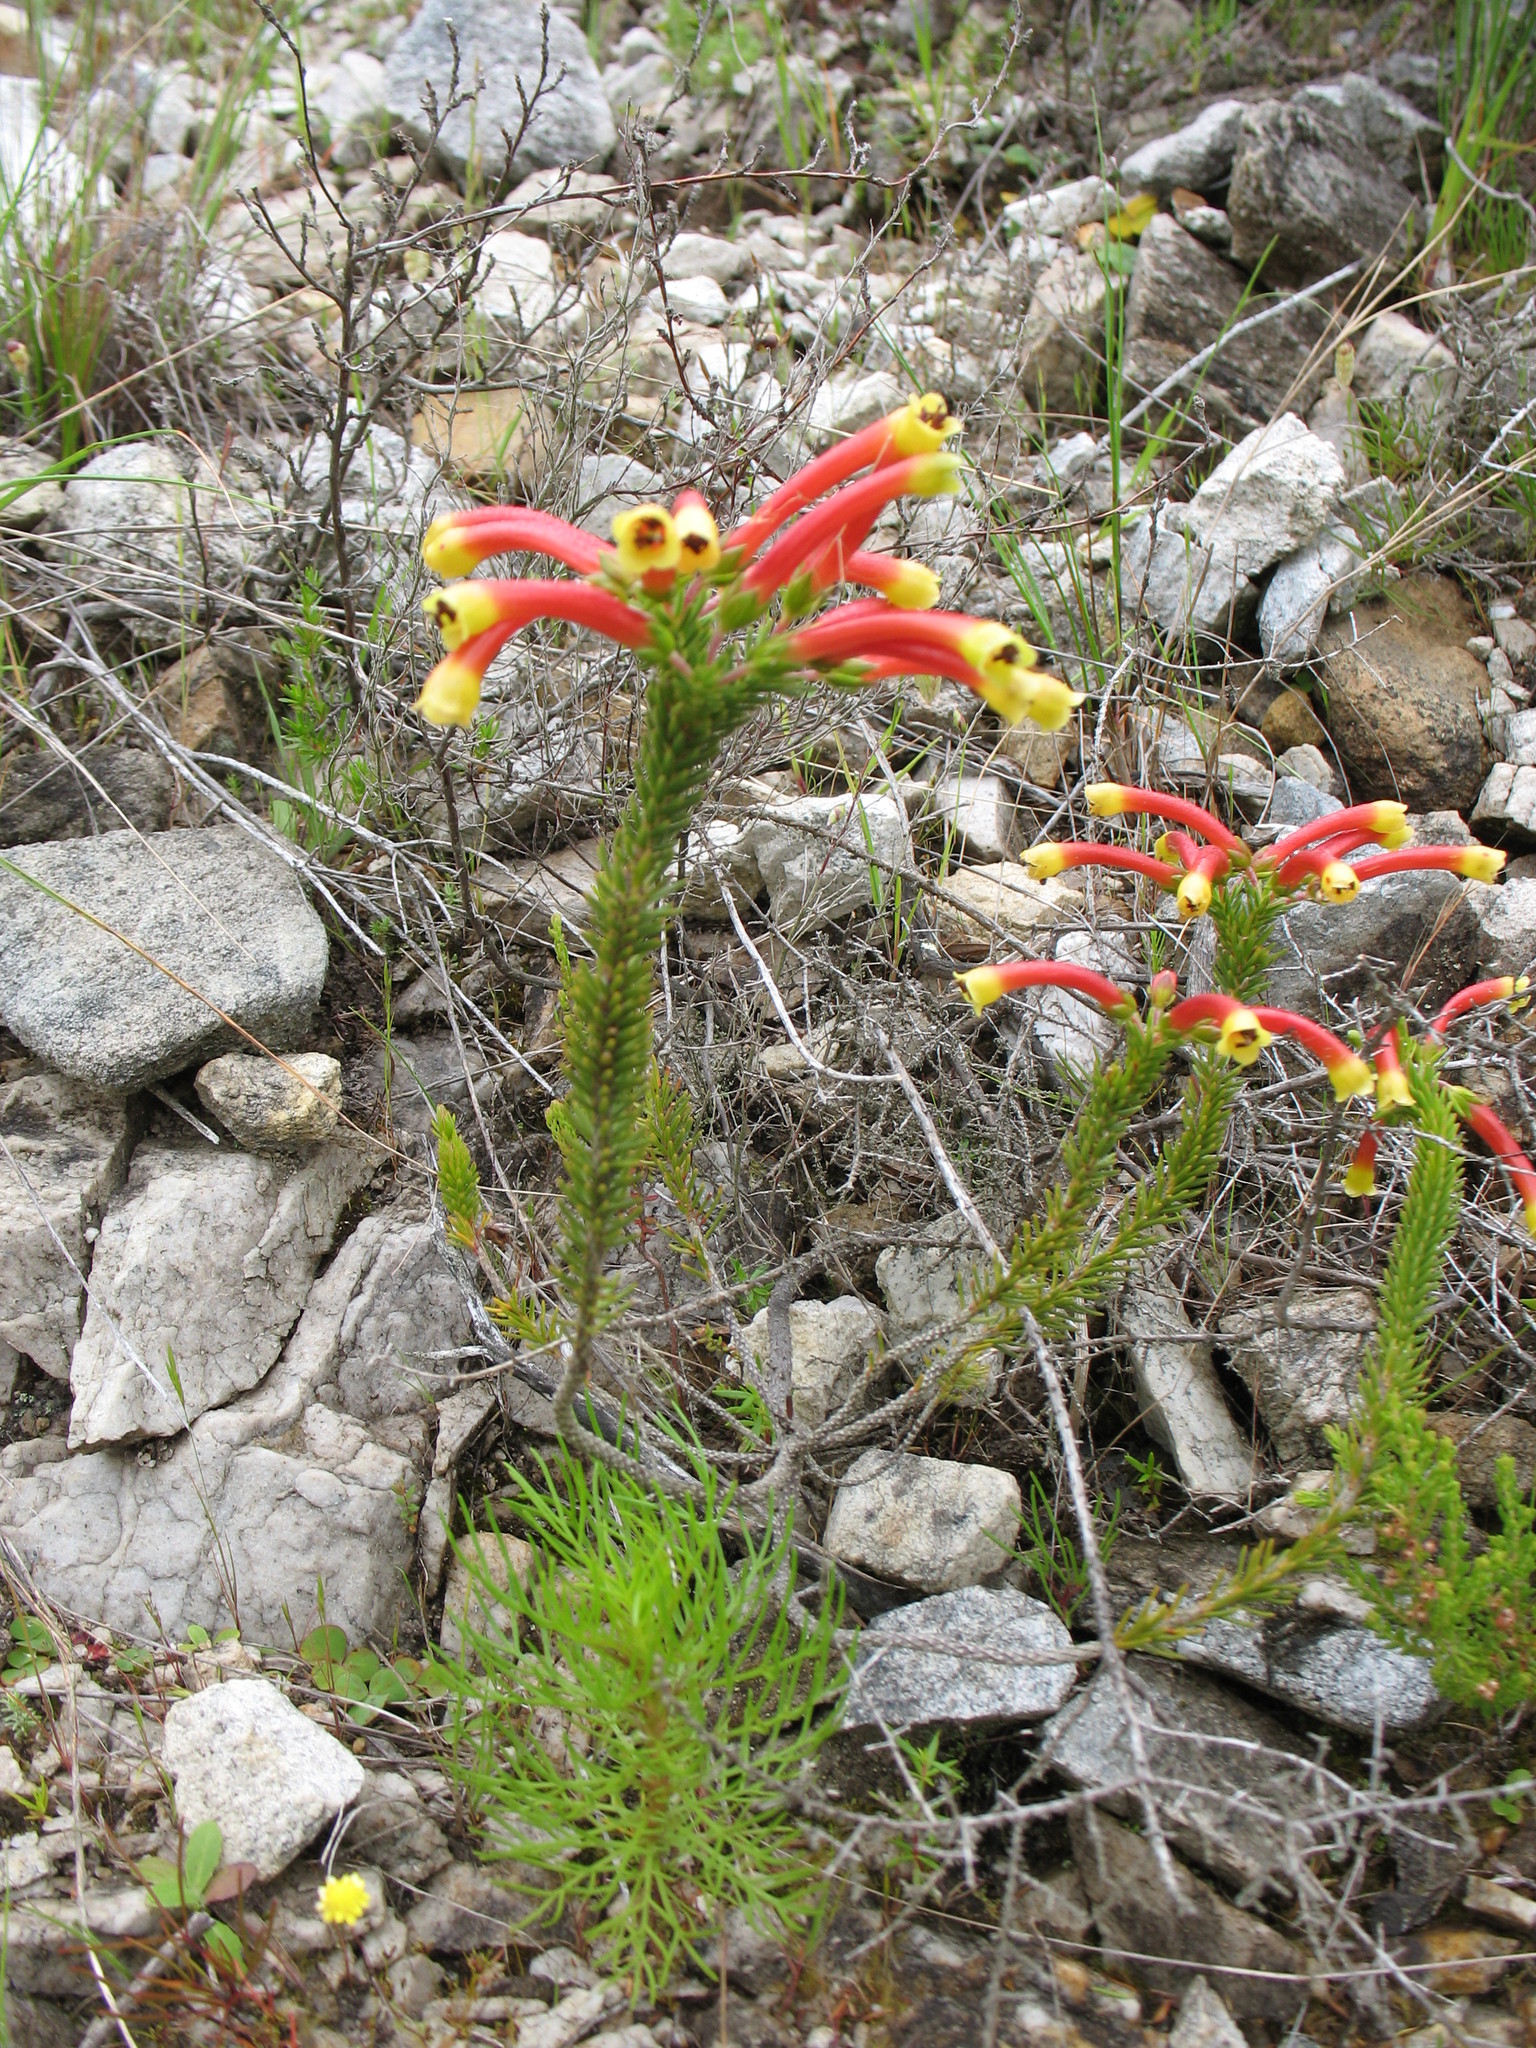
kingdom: Plantae
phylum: Tracheophyta
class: Magnoliopsida
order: Ericales
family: Ericaceae
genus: Erica
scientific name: Erica hibbertia
